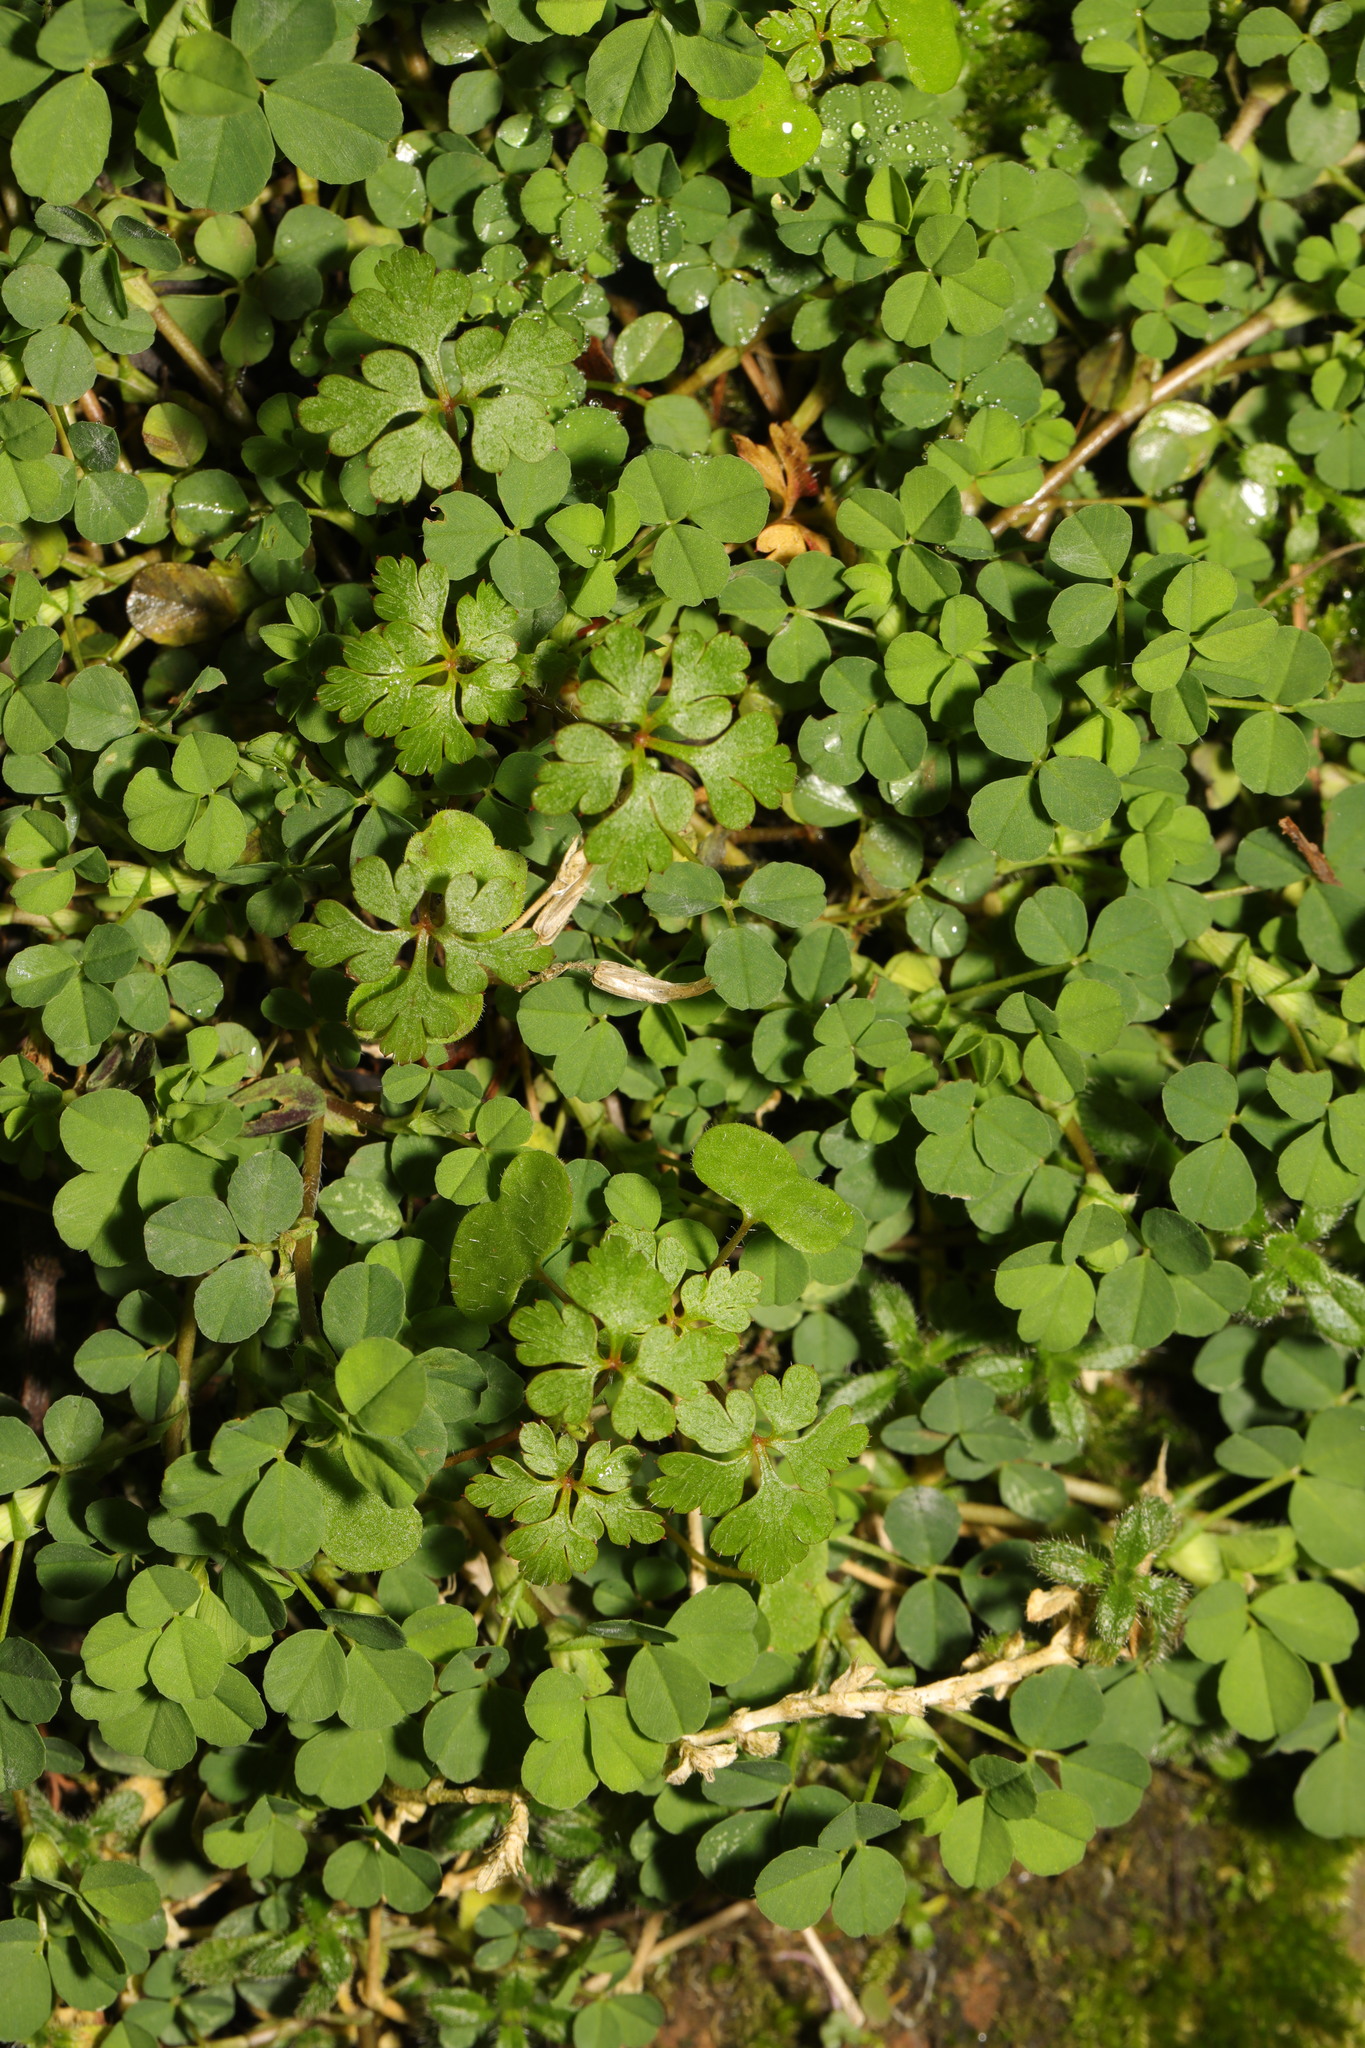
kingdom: Plantae
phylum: Tracheophyta
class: Magnoliopsida
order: Fabales
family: Fabaceae
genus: Trifolium
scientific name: Trifolium dubium
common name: Suckling clover
